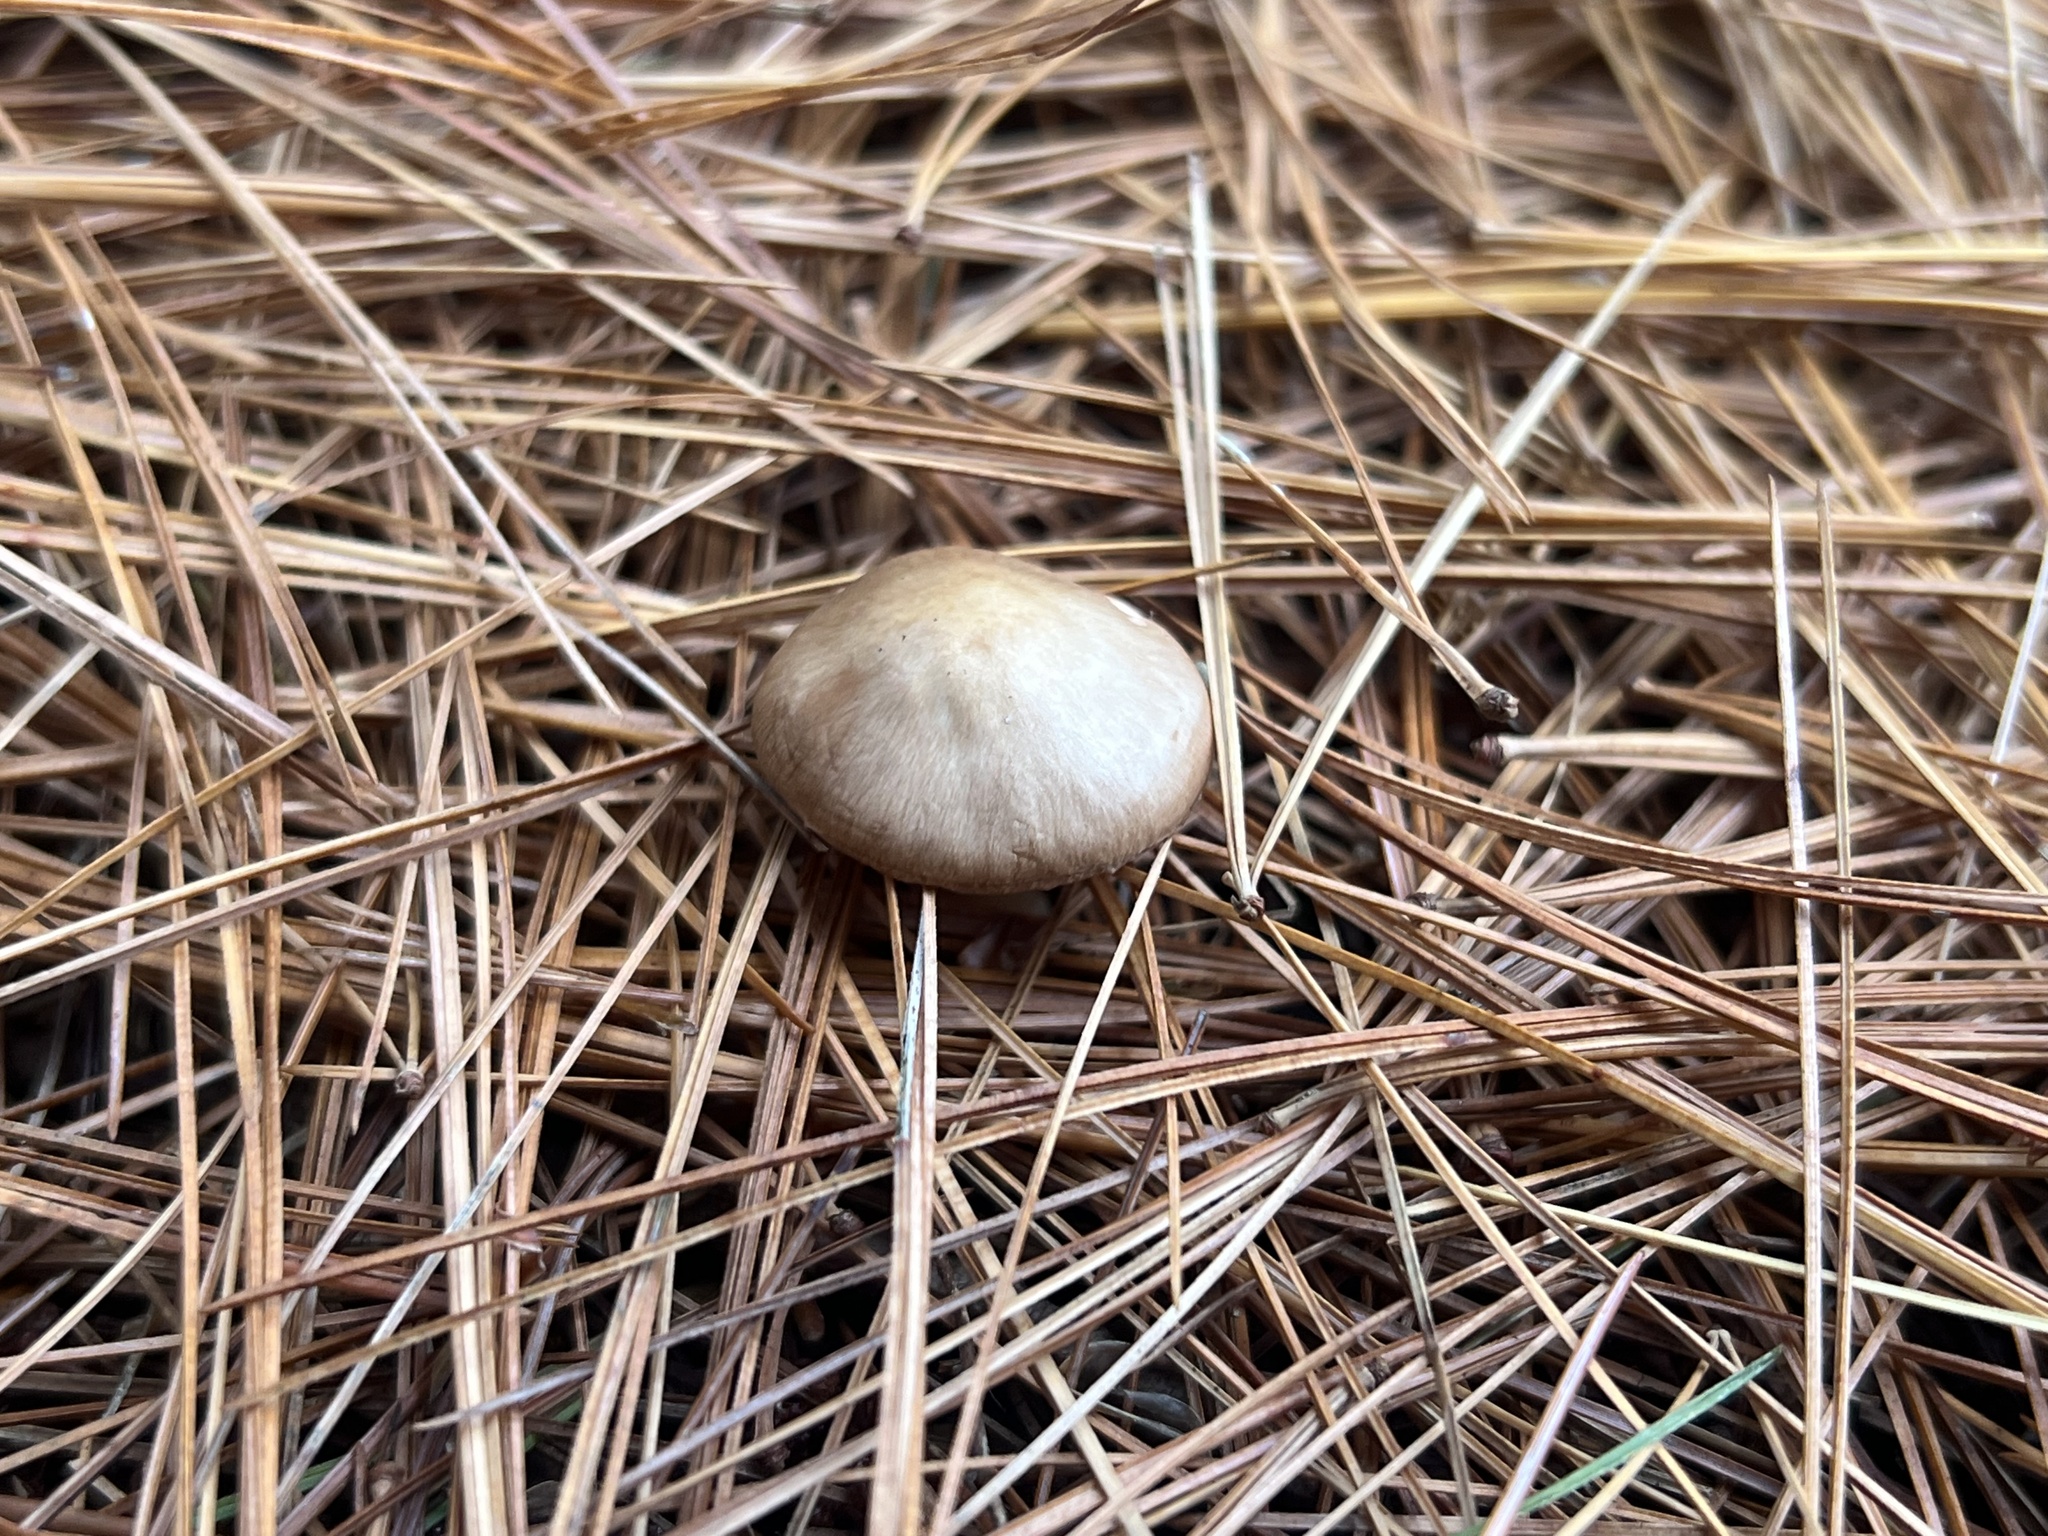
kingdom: Fungi
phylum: Basidiomycota
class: Agaricomycetes
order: Agaricales
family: Omphalotaceae
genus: Rhodocollybia
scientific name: Rhodocollybia butyracea
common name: Butter cap
